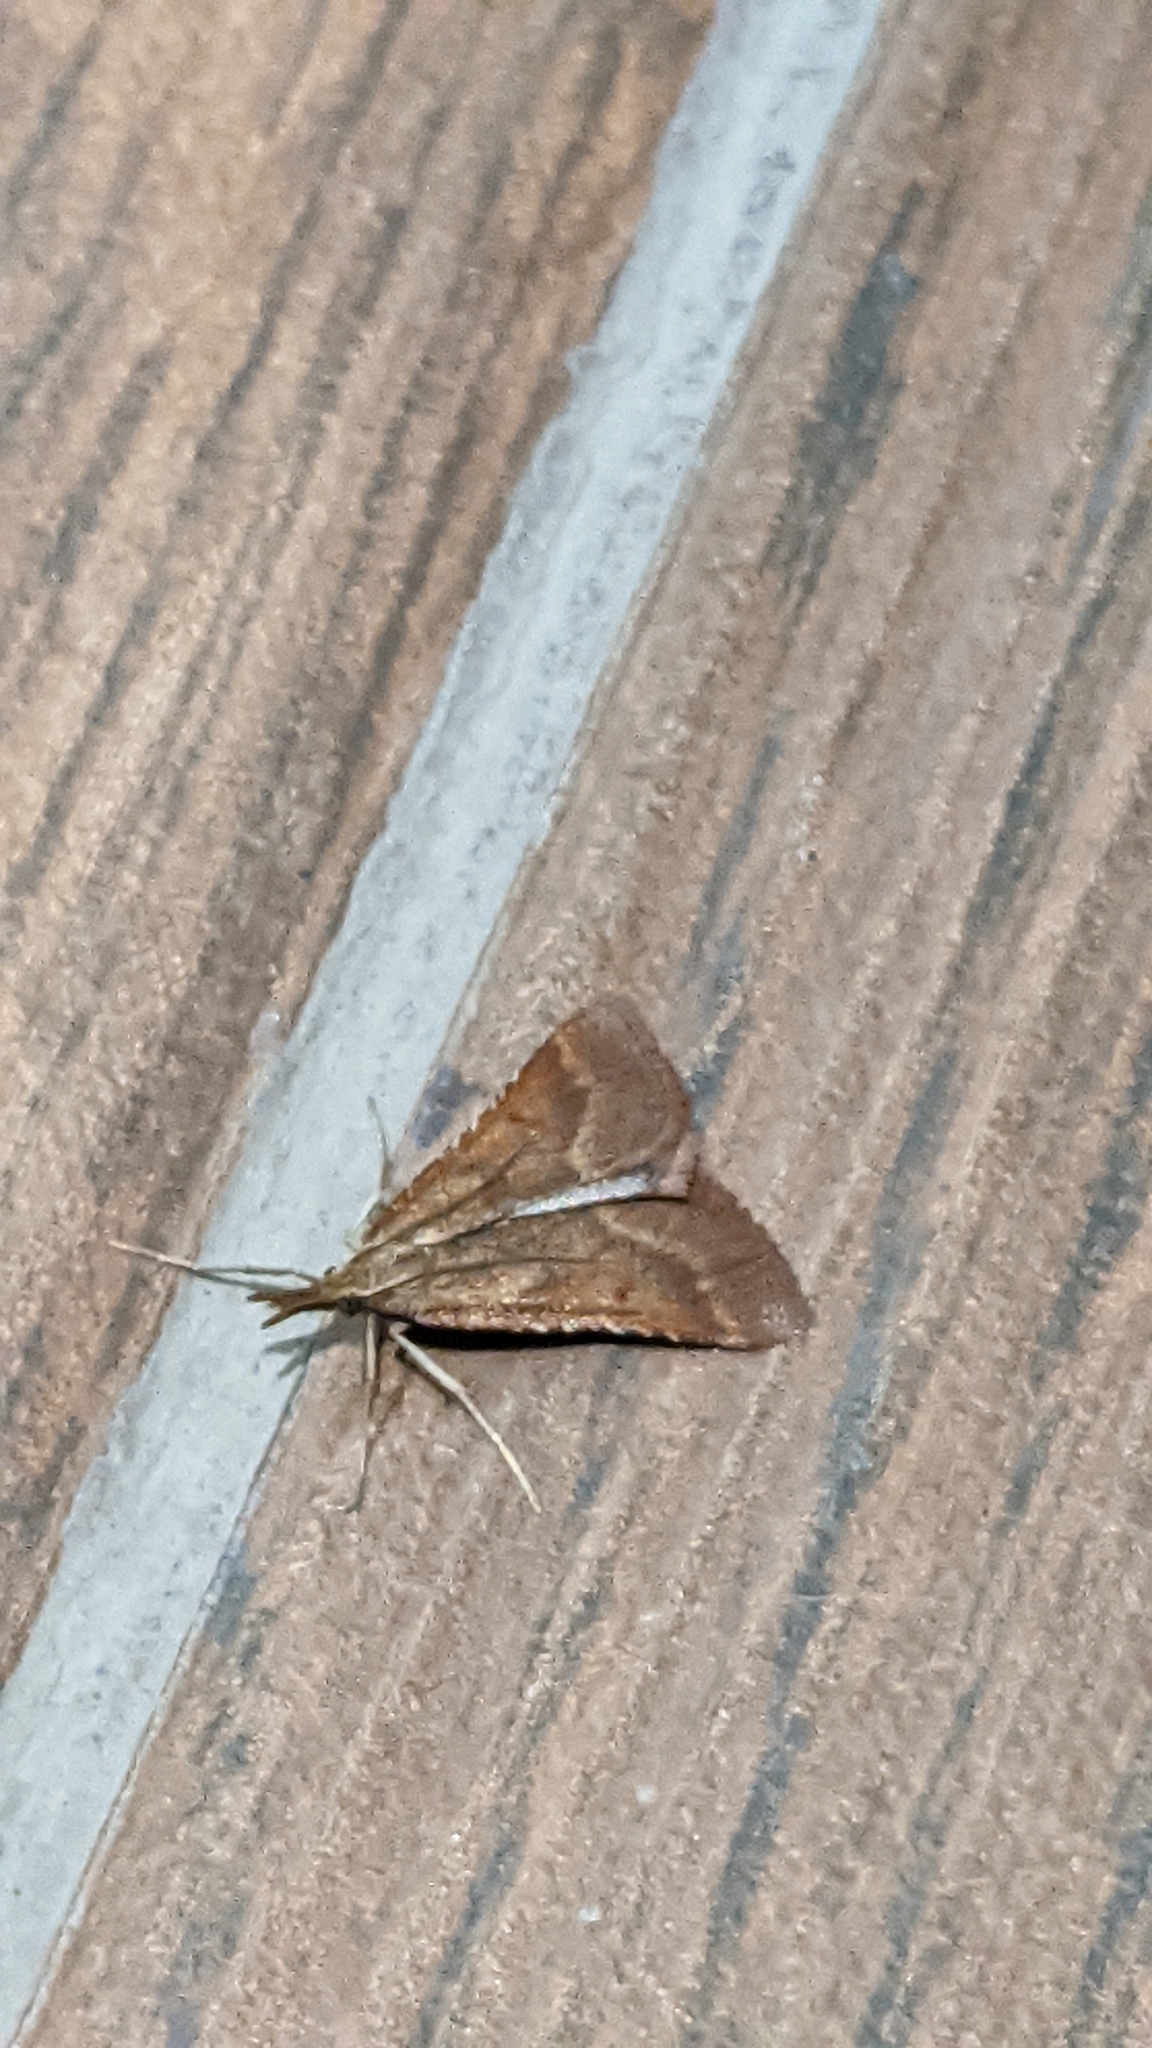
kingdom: Animalia
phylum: Arthropoda
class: Insecta
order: Lepidoptera
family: Pyralidae
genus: Synaphe
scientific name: Synaphe punctalis
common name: Long-legged tabby
